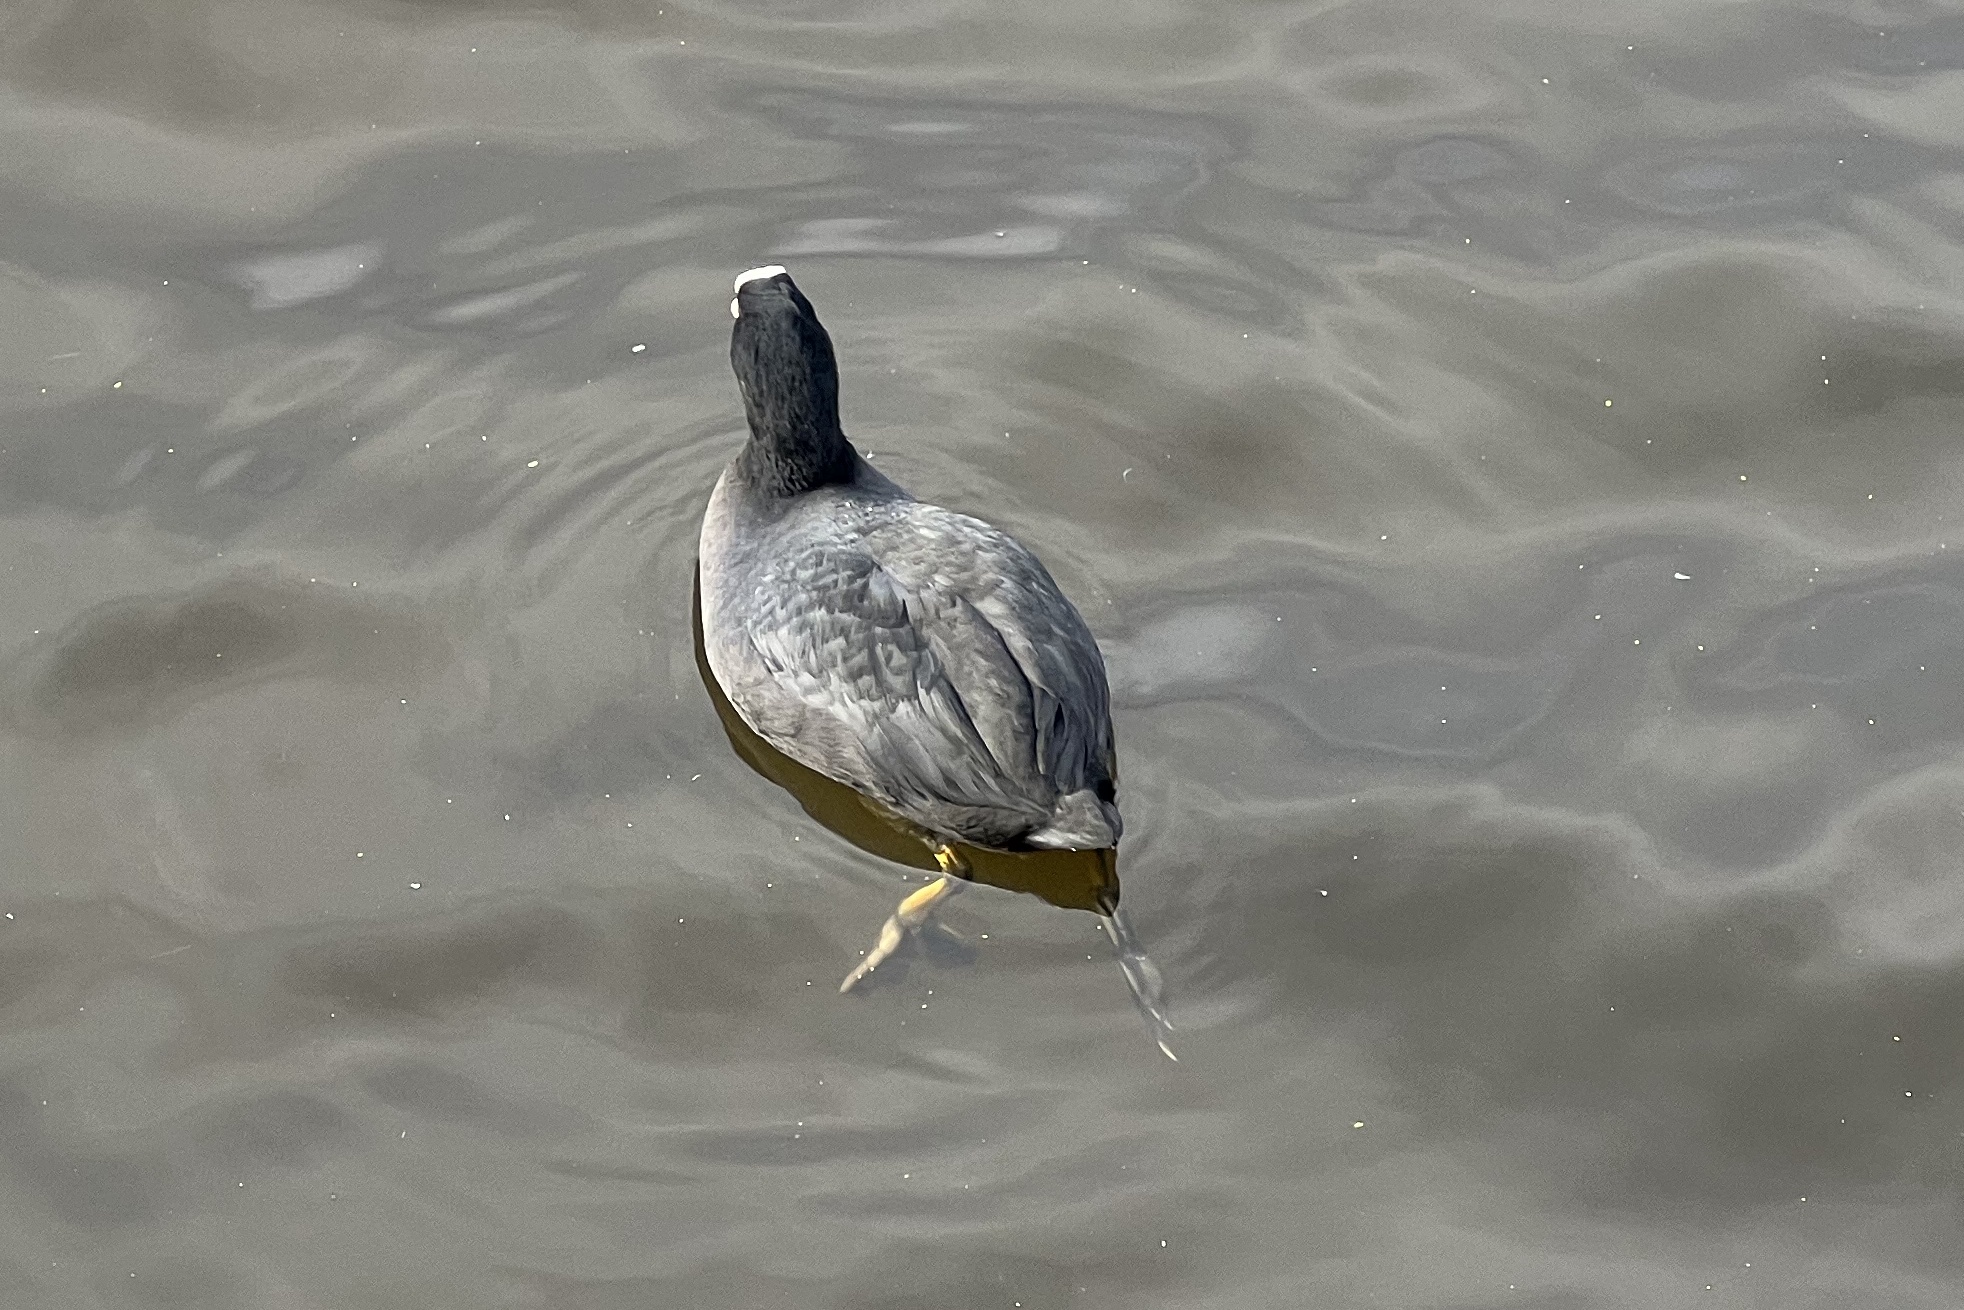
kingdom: Animalia
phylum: Chordata
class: Aves
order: Gruiformes
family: Rallidae
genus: Fulica
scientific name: Fulica atra
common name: Eurasian coot
